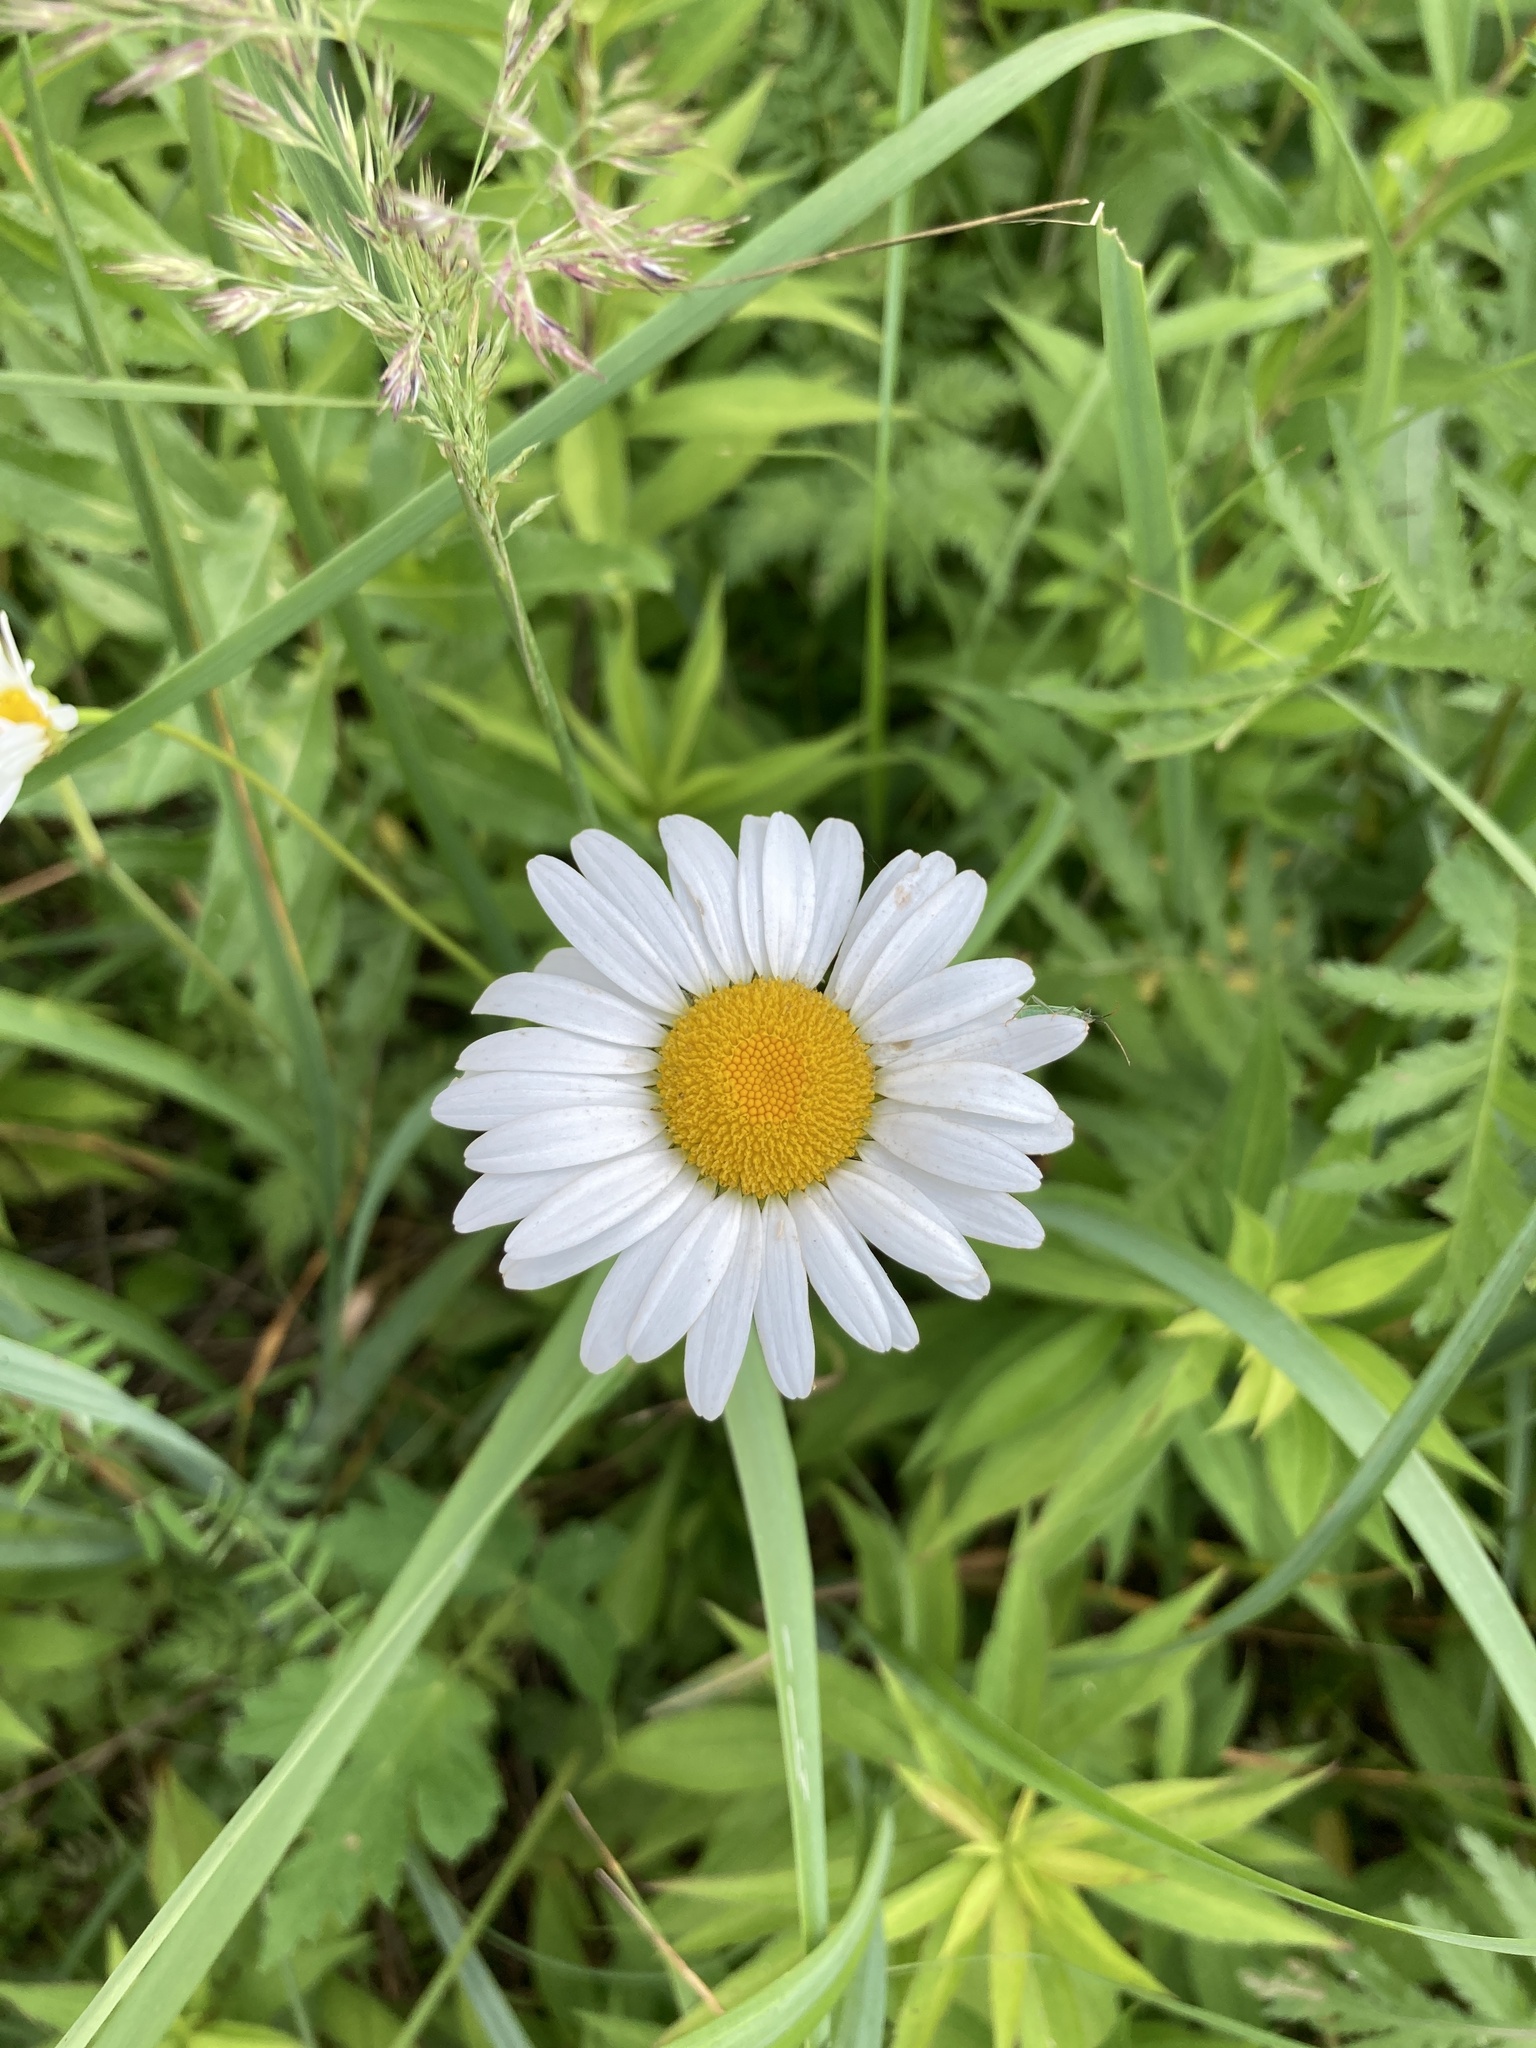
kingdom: Plantae
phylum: Tracheophyta
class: Magnoliopsida
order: Asterales
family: Asteraceae
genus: Leucanthemum
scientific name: Leucanthemum vulgare
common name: Oxeye daisy
